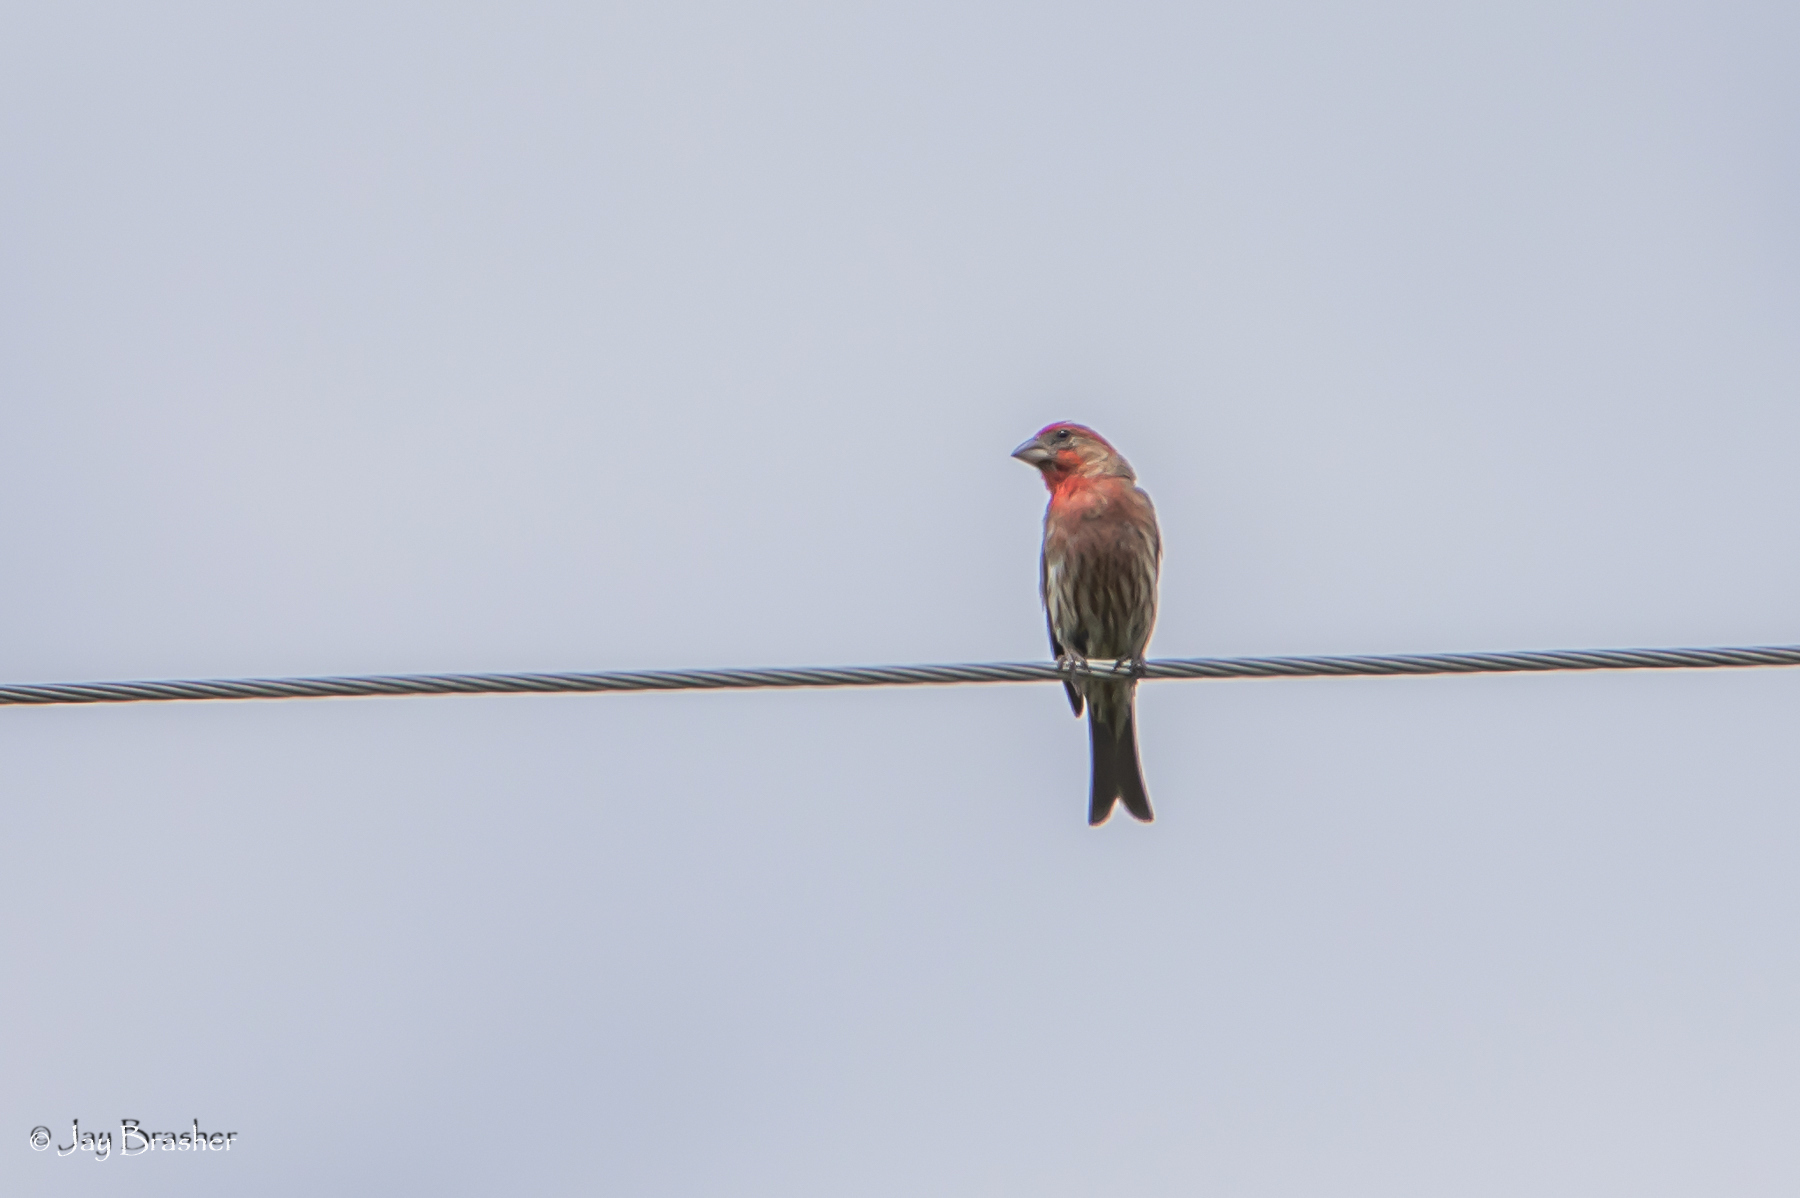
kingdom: Animalia
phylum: Chordata
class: Aves
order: Passeriformes
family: Fringillidae
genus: Haemorhous
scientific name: Haemorhous mexicanus
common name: House finch
